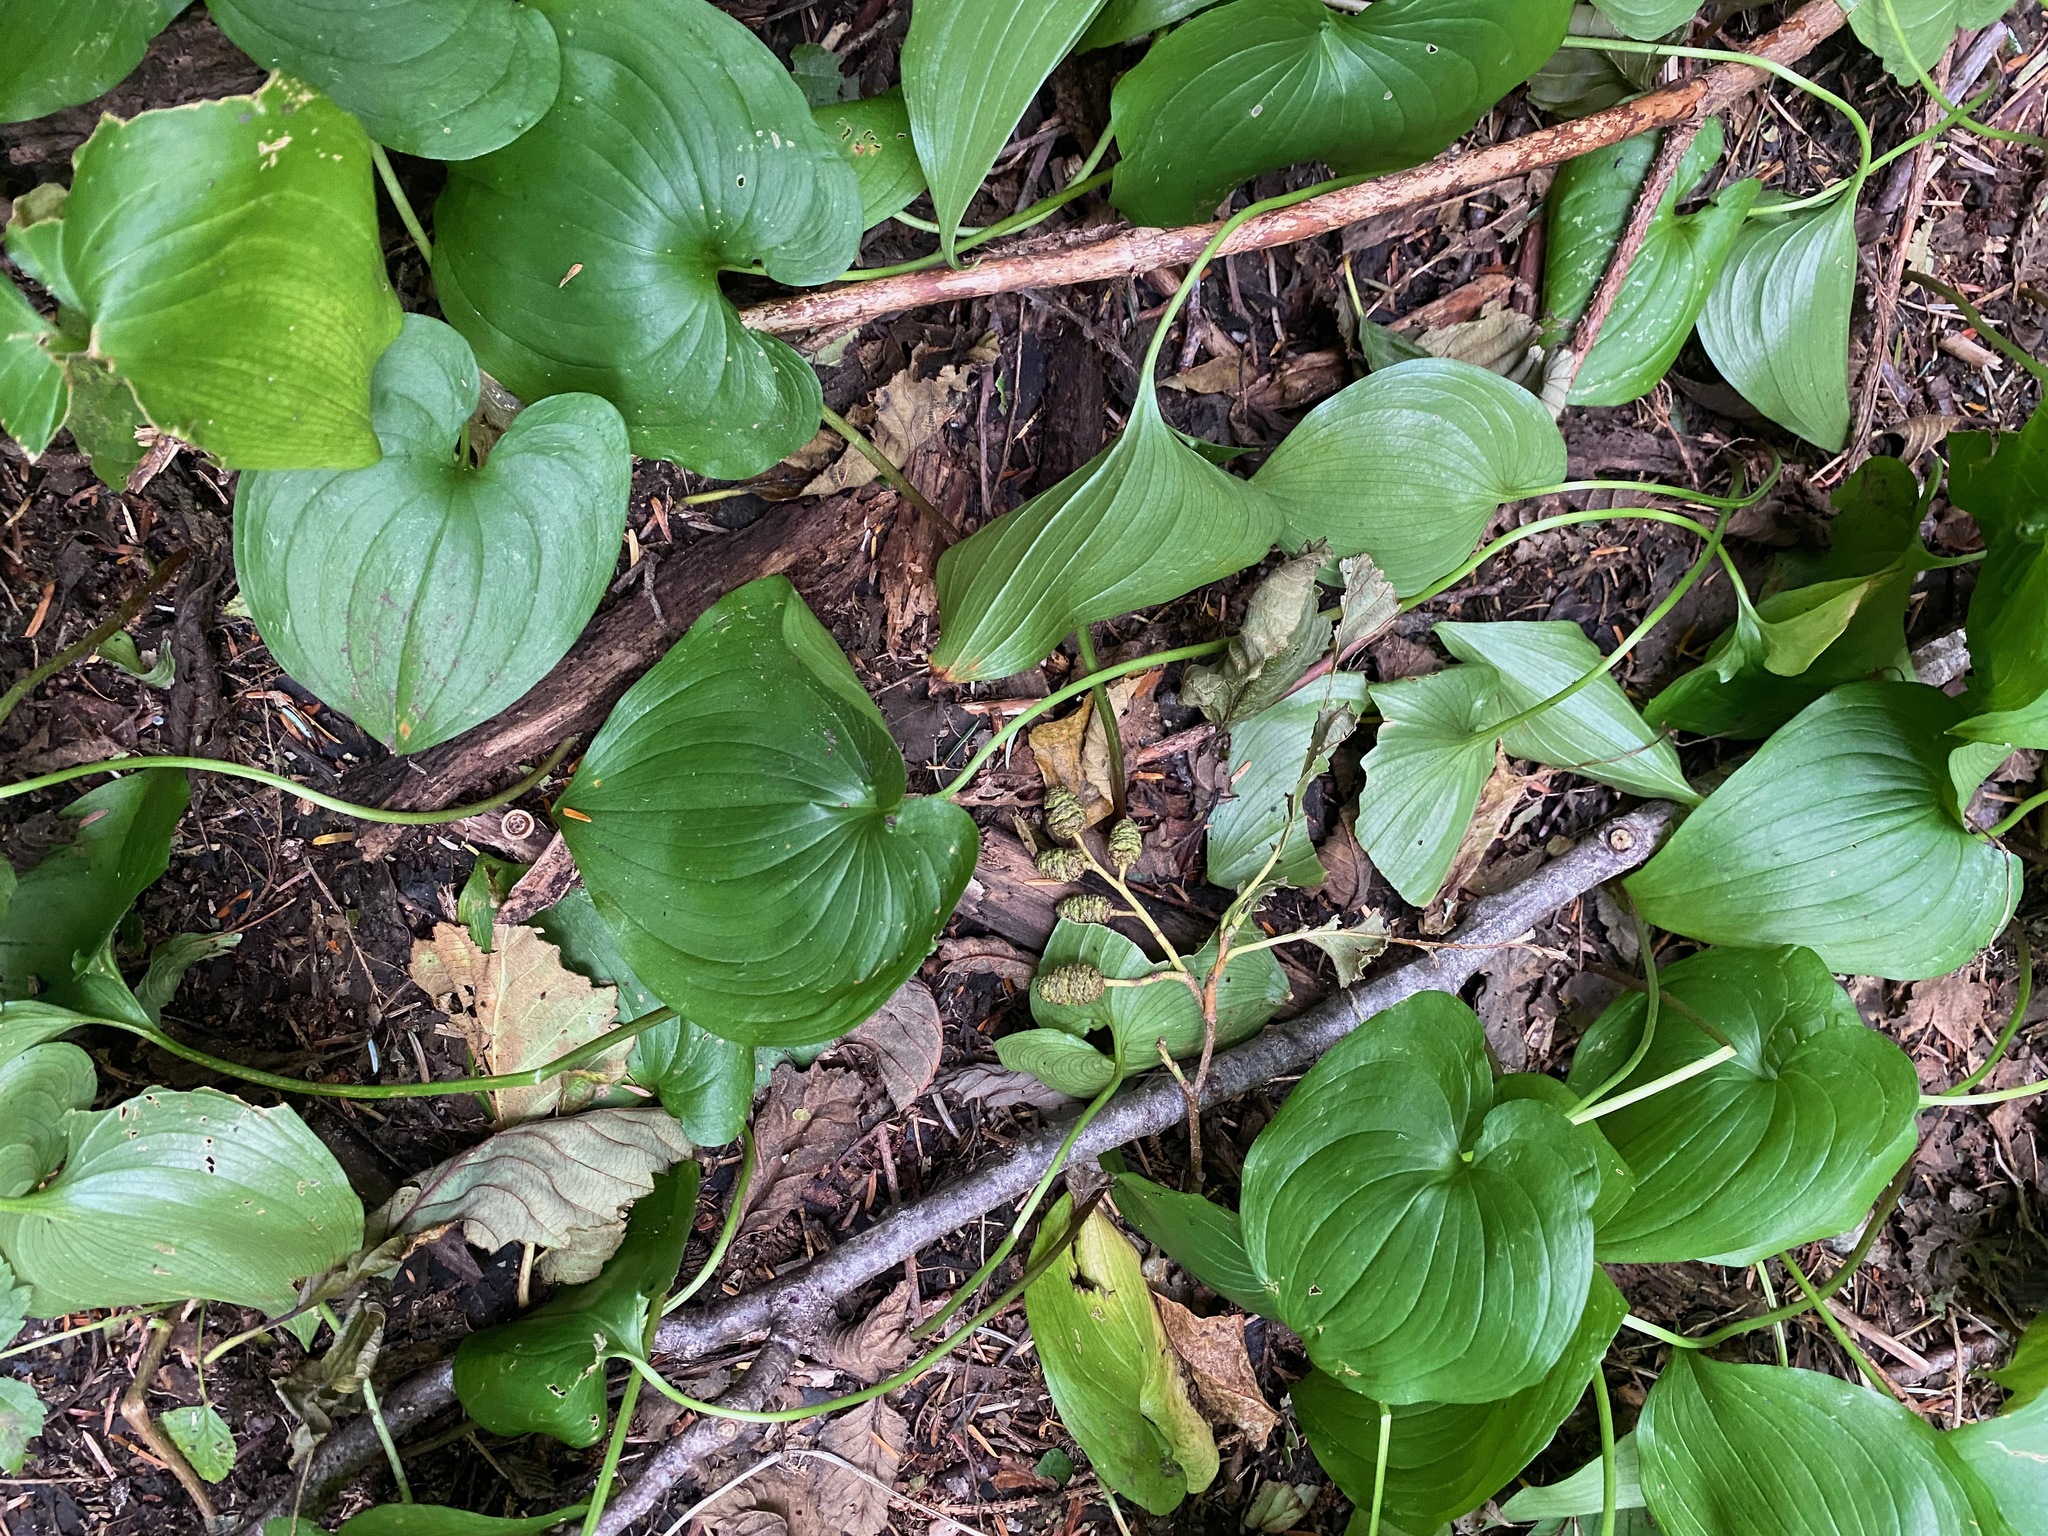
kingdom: Plantae
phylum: Tracheophyta
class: Liliopsida
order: Asparagales
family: Asparagaceae
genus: Maianthemum
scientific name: Maianthemum dilatatum
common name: False lily-of-the-valley
